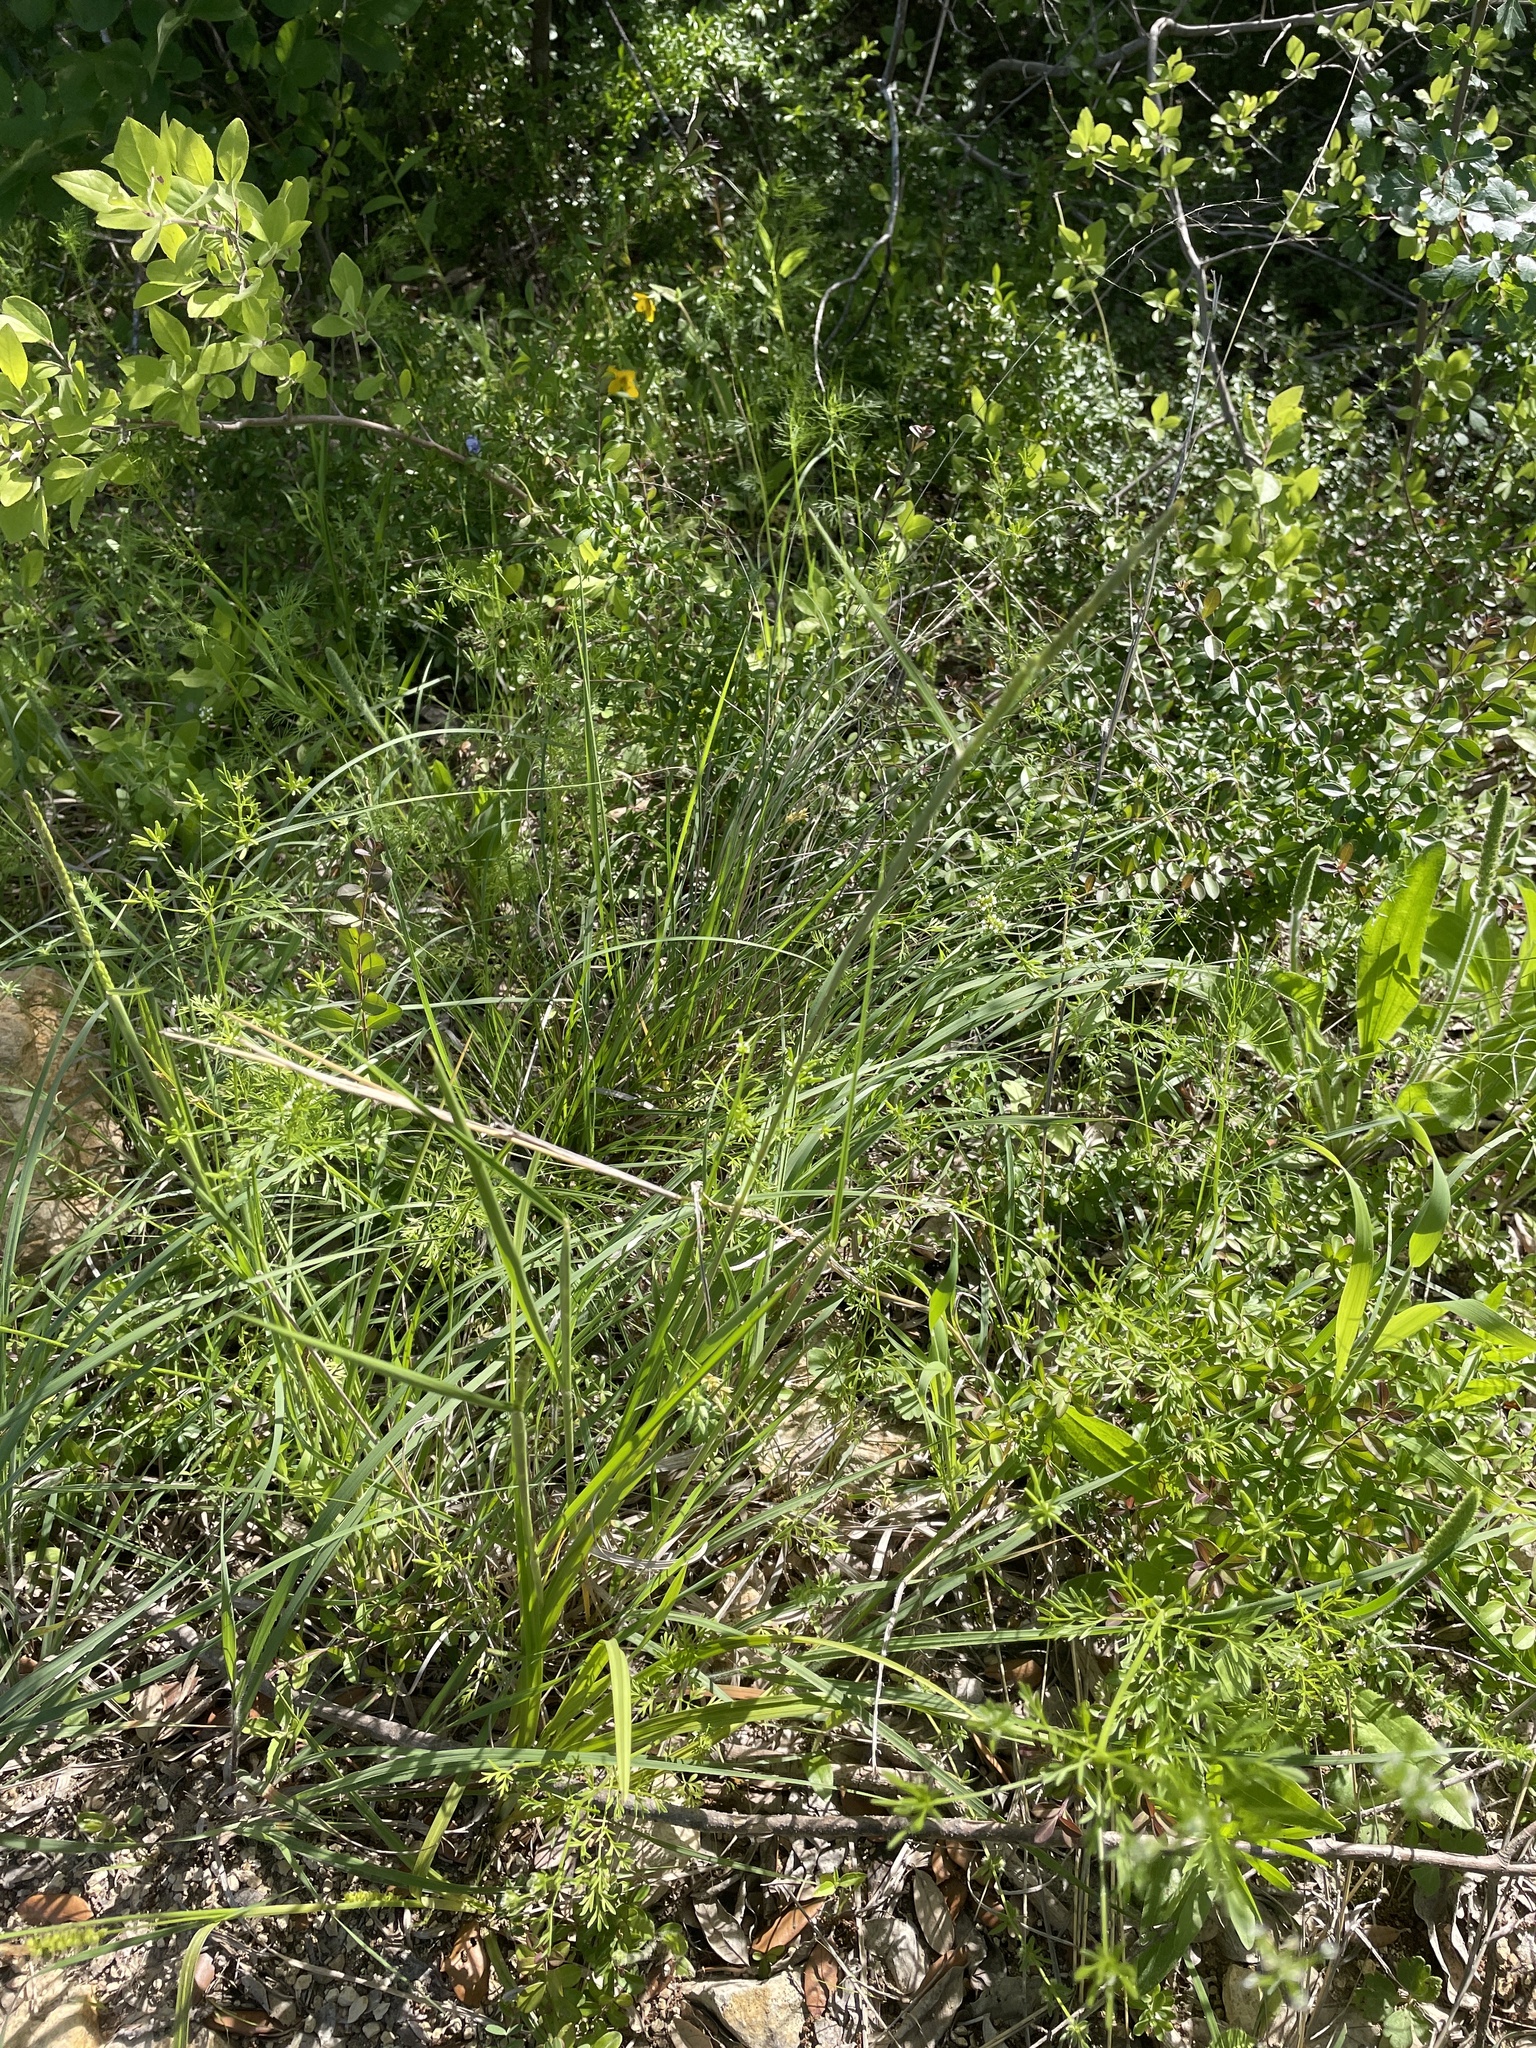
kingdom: Plantae
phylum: Tracheophyta
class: Liliopsida
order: Poales
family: Poaceae
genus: Eriochloa
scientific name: Eriochloa sericea
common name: Texas cup grass
